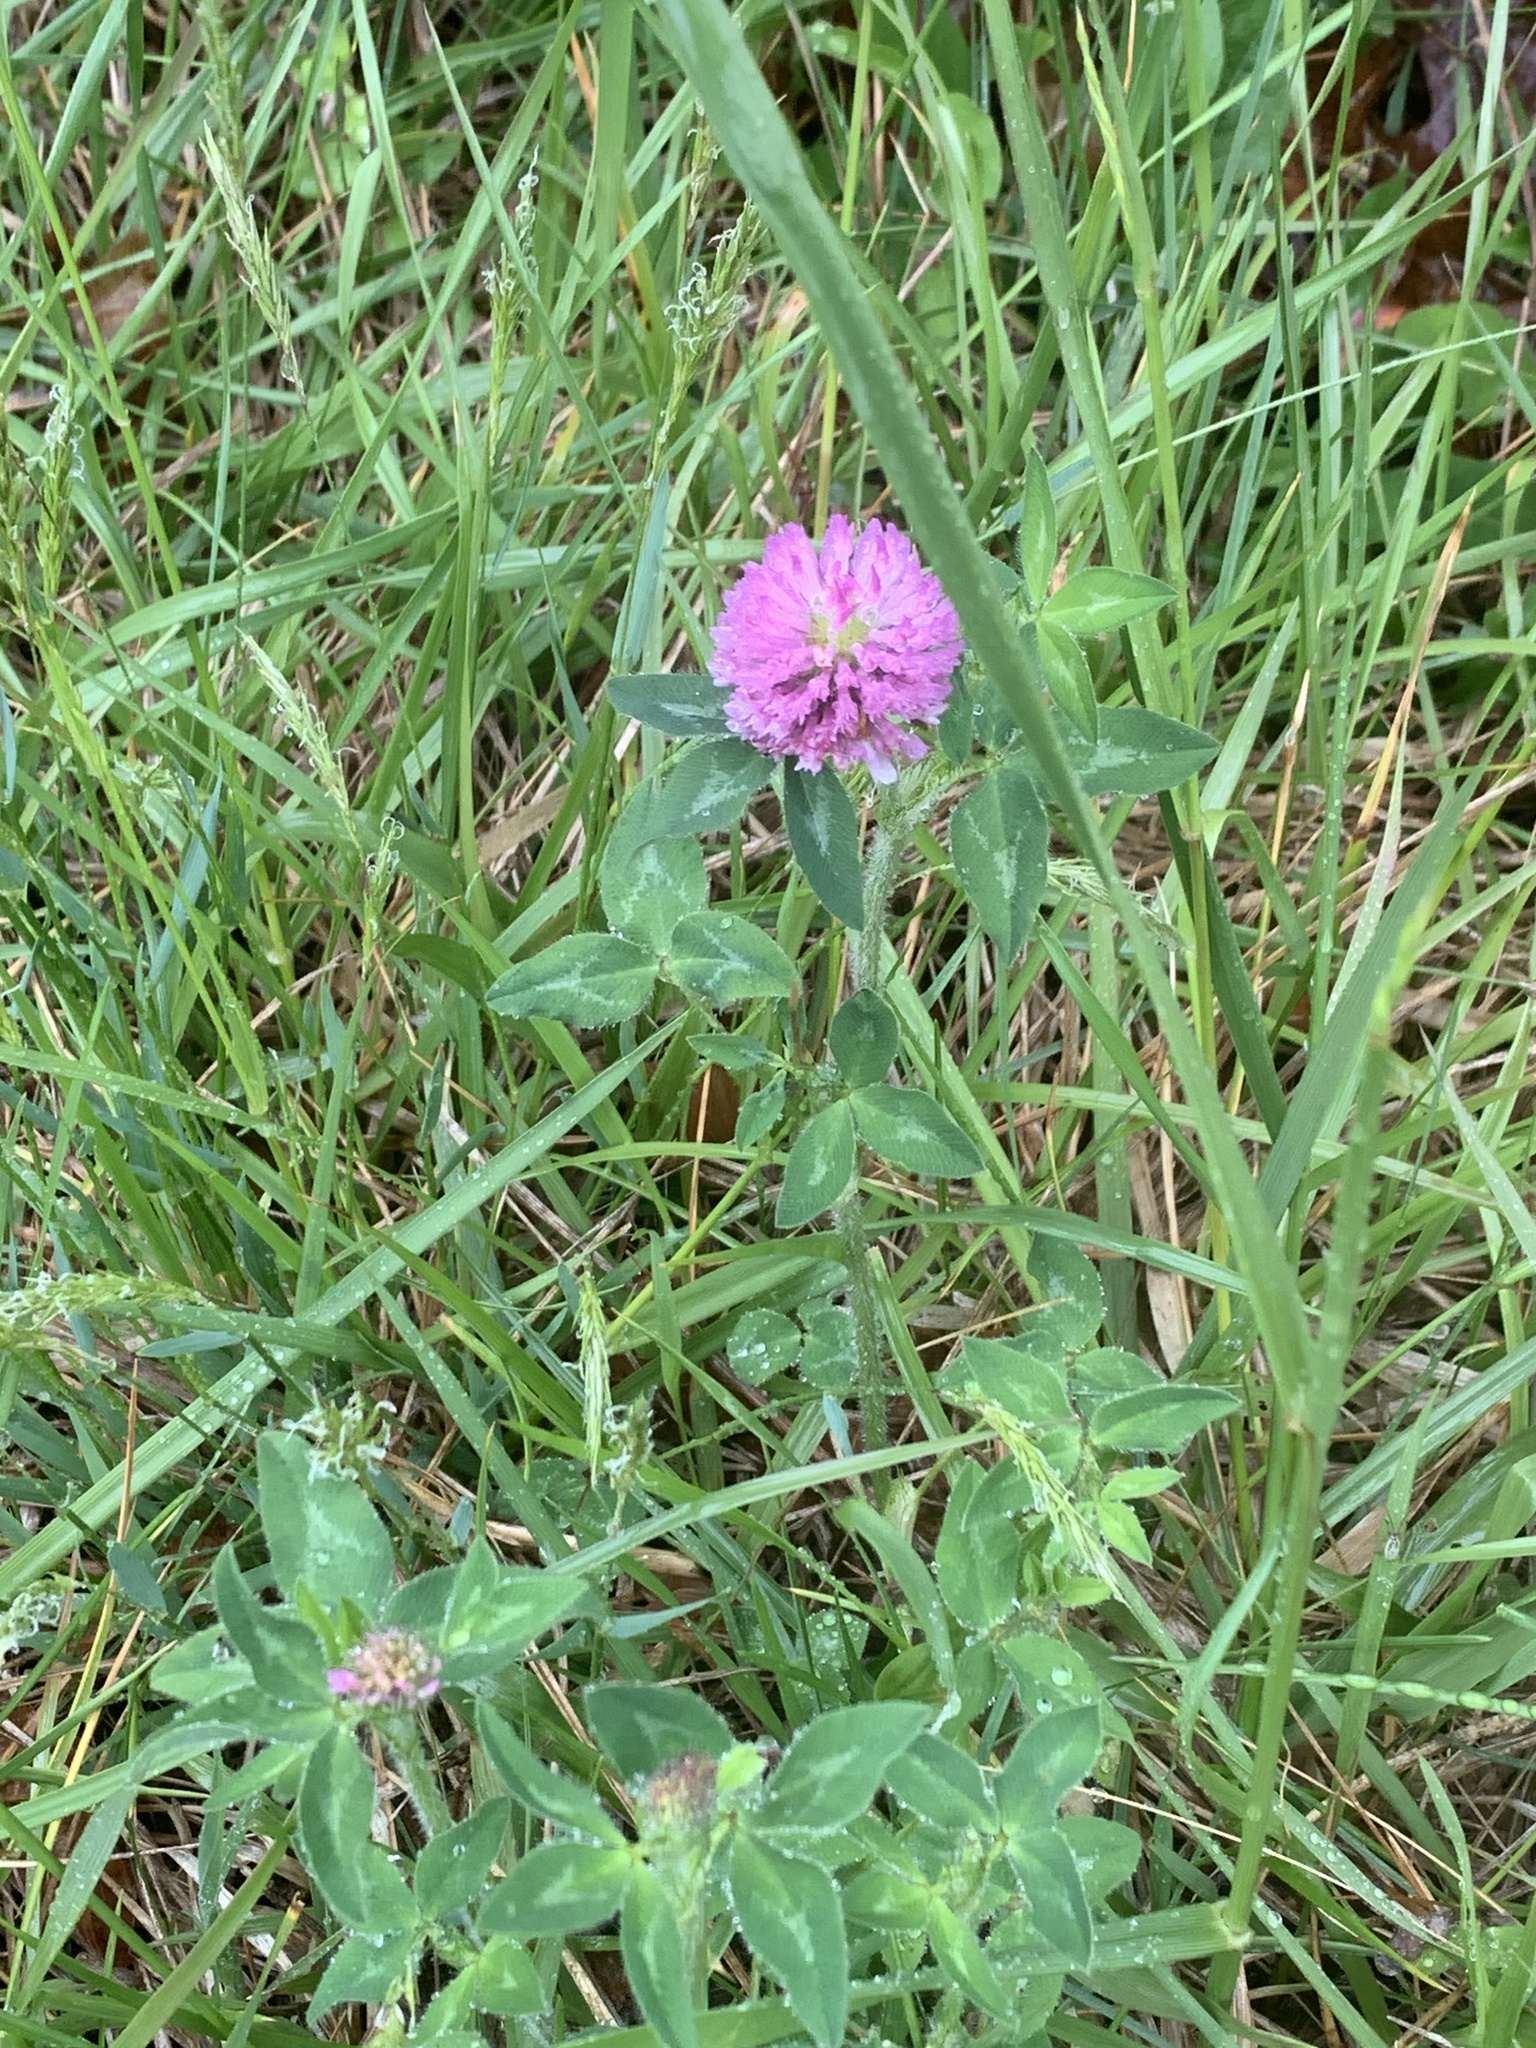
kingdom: Plantae
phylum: Tracheophyta
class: Magnoliopsida
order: Fabales
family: Fabaceae
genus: Trifolium
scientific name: Trifolium pratense
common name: Red clover
